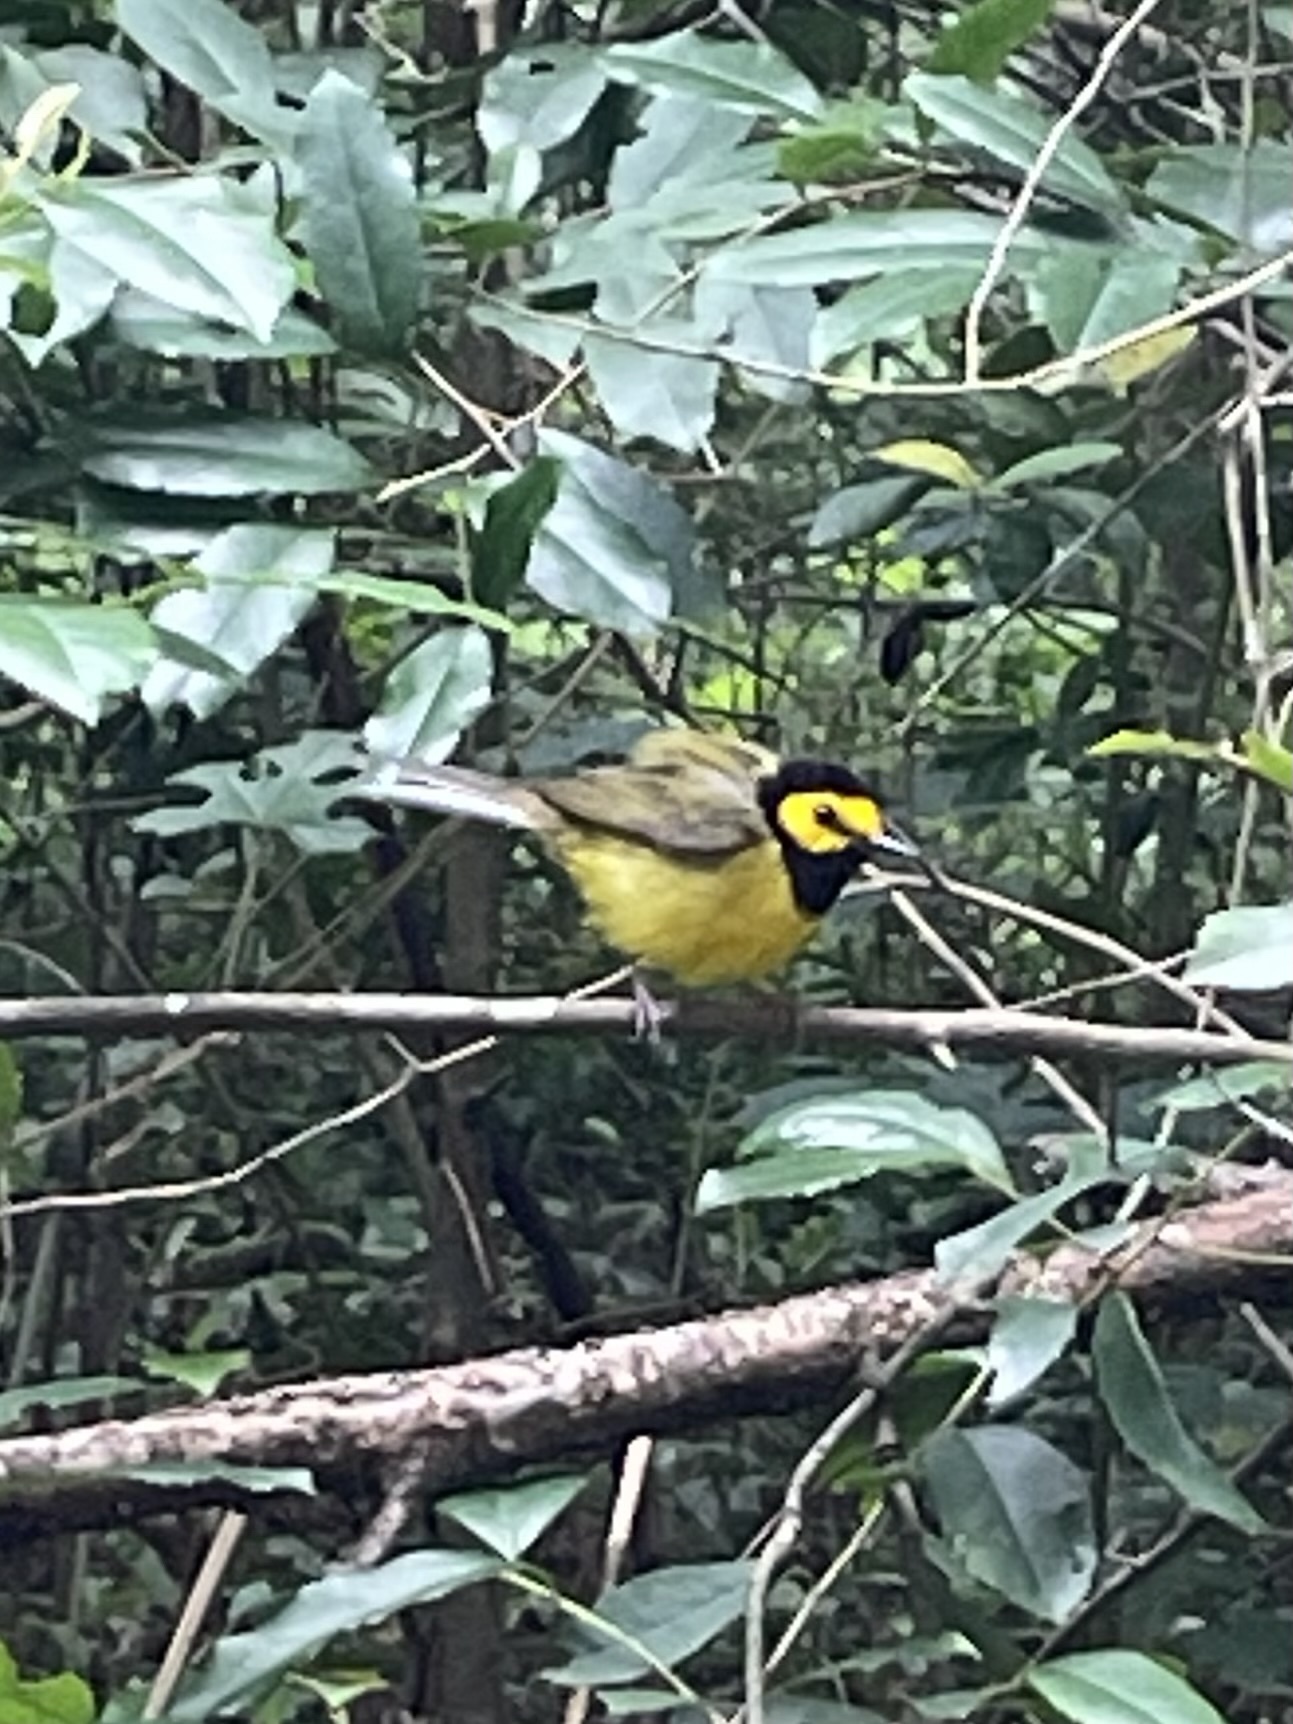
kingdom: Animalia
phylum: Chordata
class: Aves
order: Passeriformes
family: Parulidae
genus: Setophaga
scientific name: Setophaga citrina
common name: Hooded warbler
